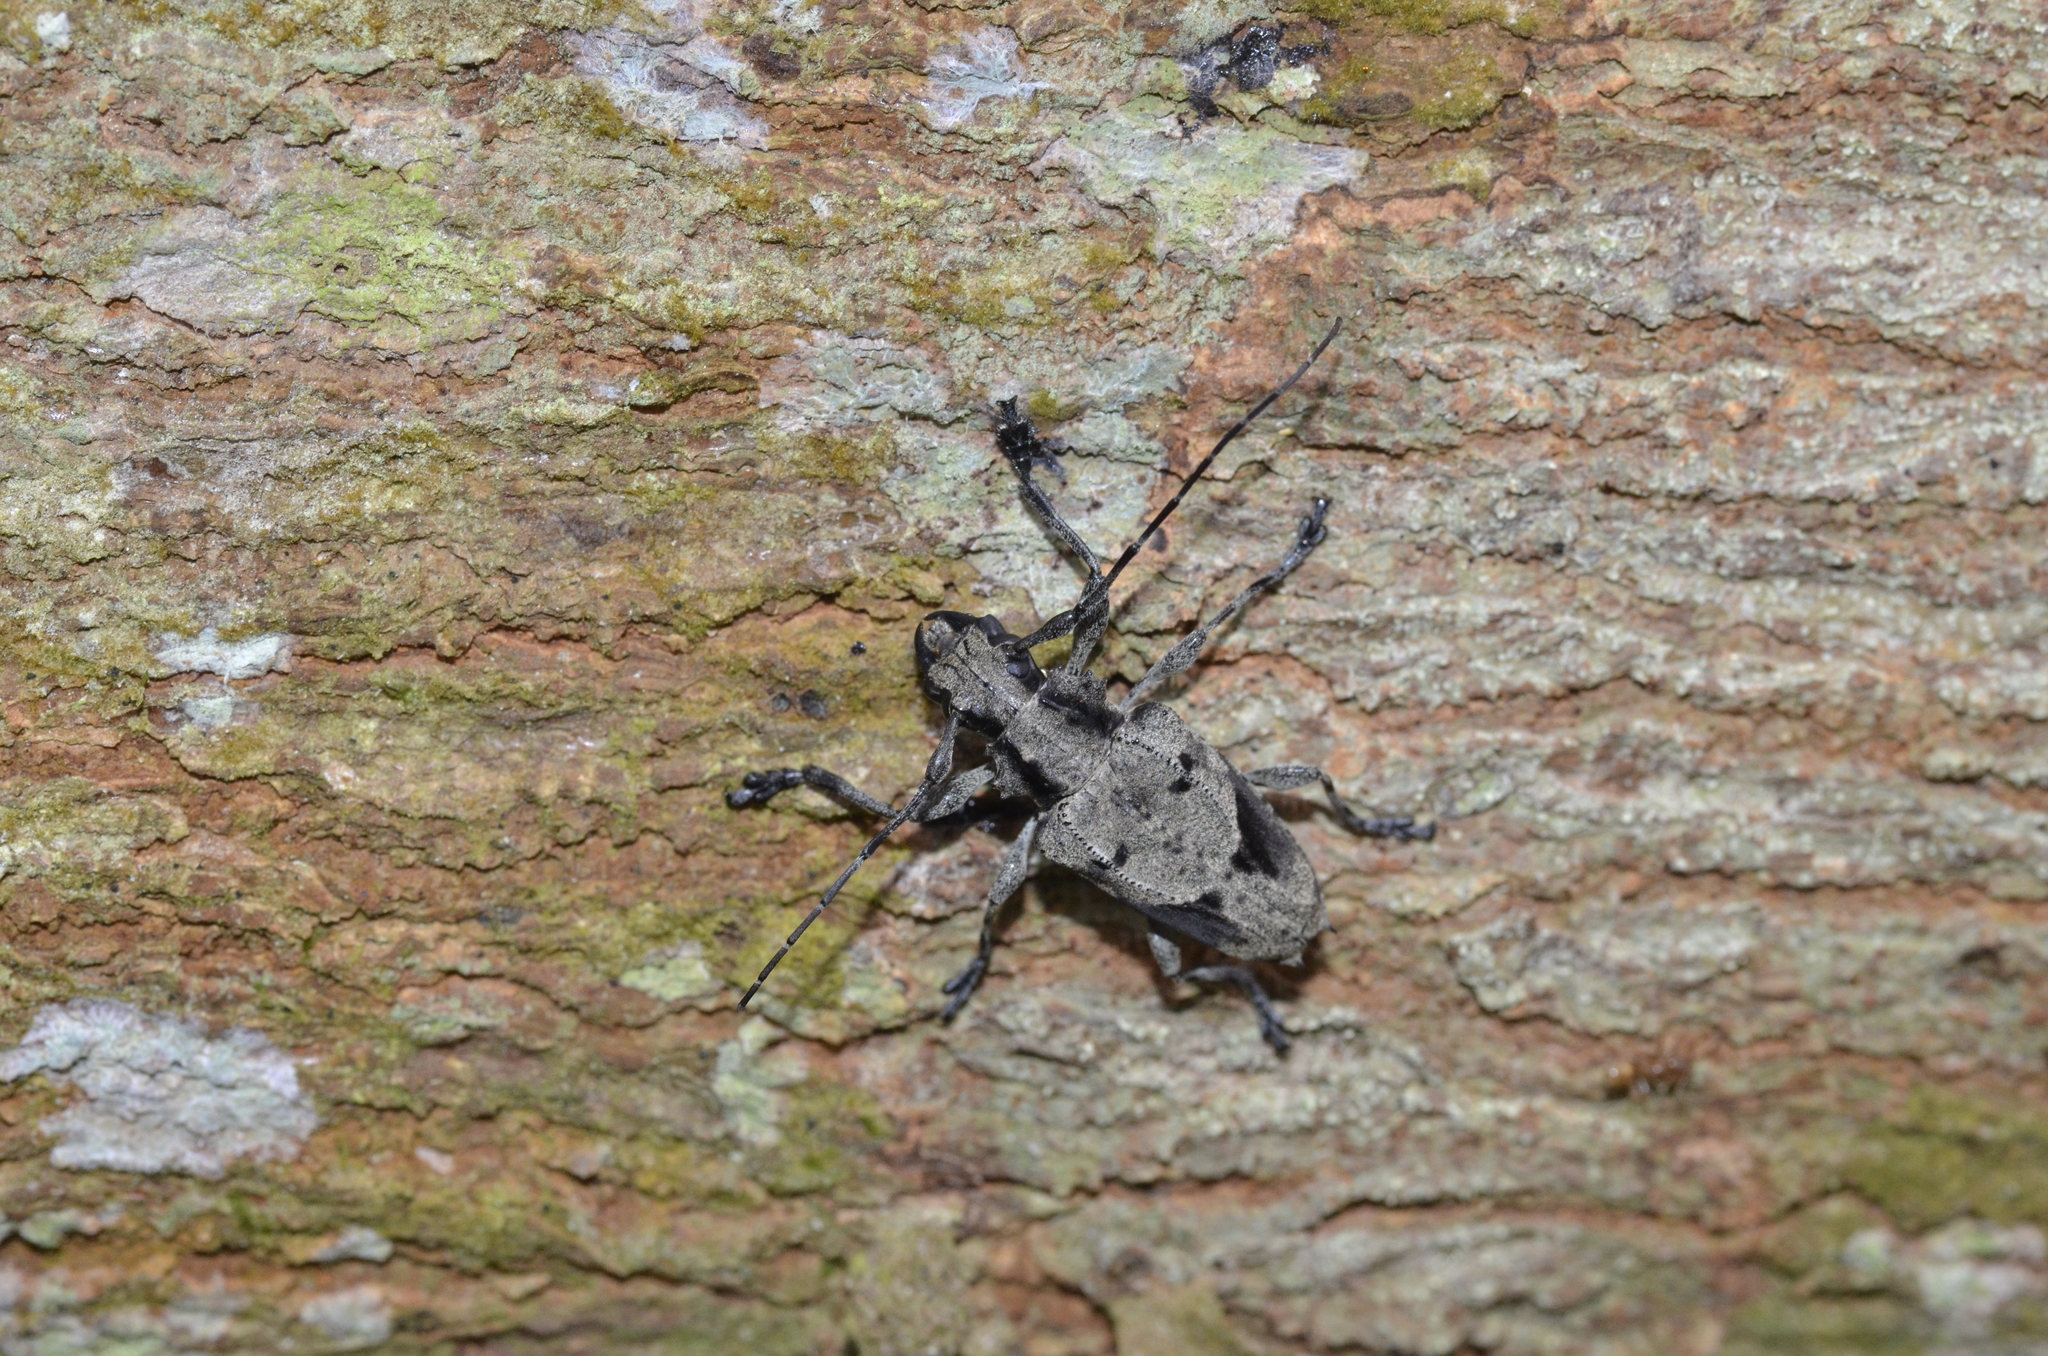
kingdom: Animalia
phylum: Arthropoda
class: Insecta
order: Coleoptera
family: Cerambycidae
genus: Steirastoma
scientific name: Steirastoma coenosum
